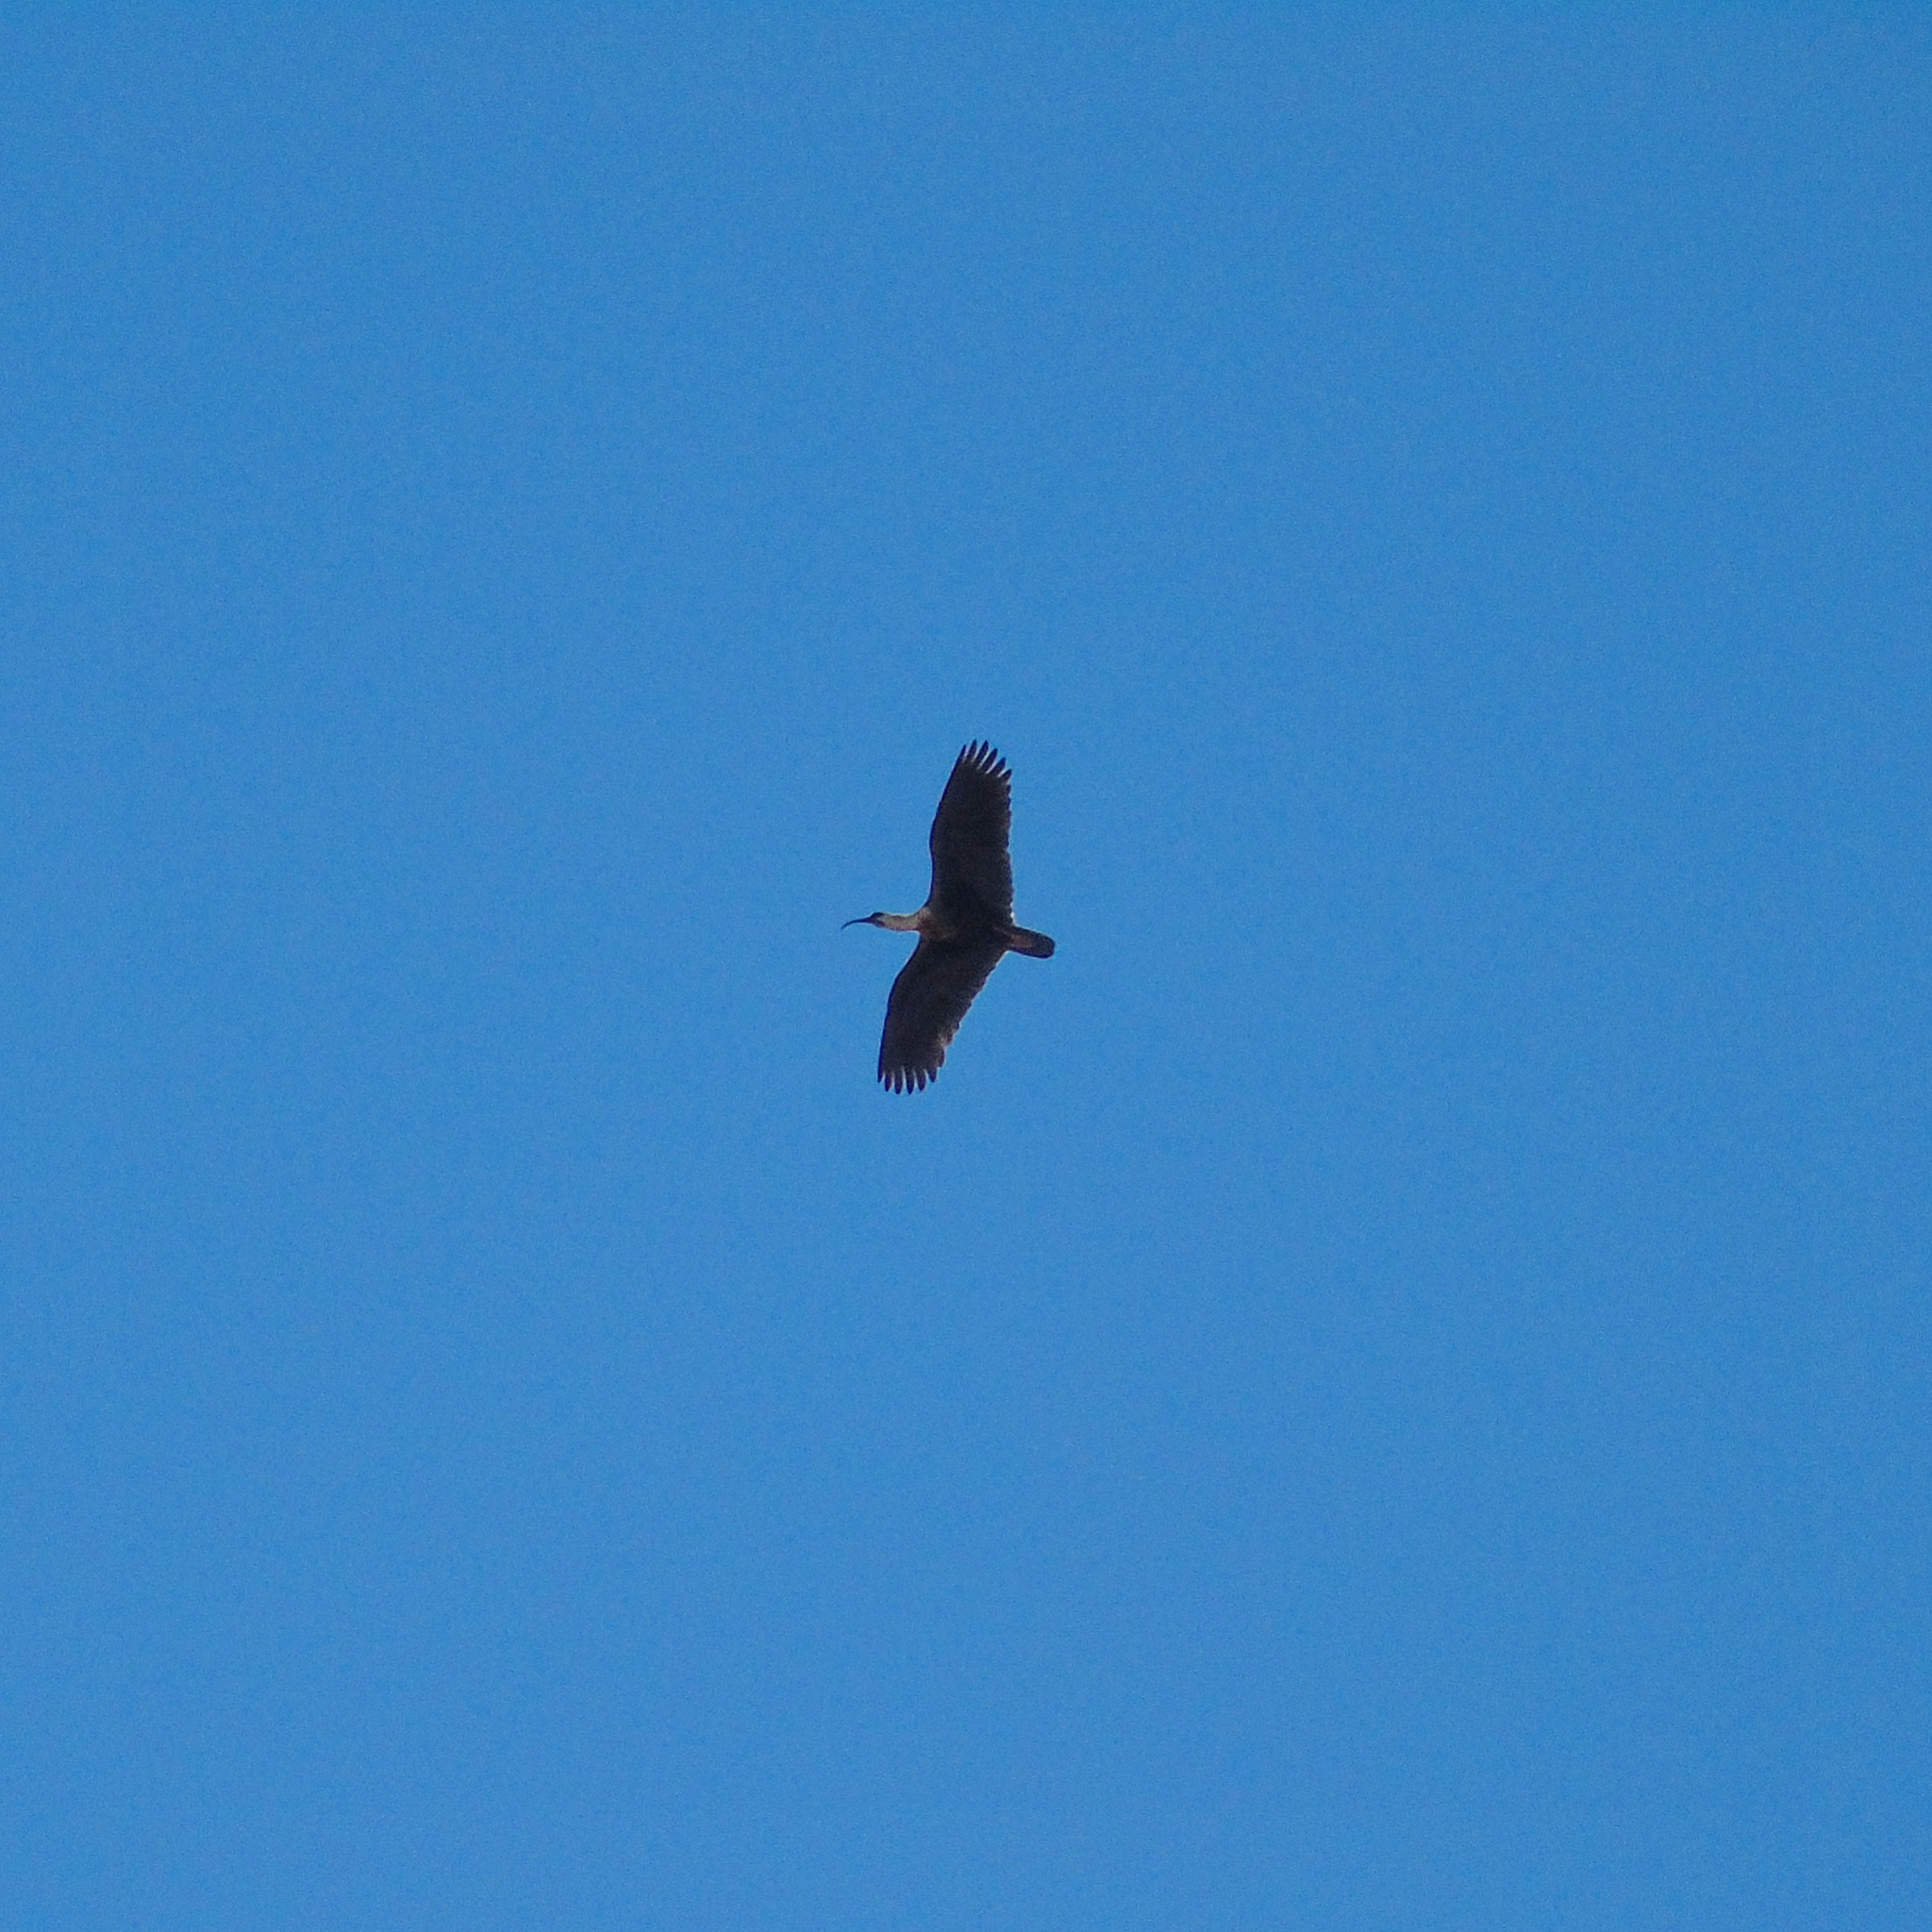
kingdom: Animalia
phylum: Chordata
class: Aves
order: Pelecaniformes
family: Threskiornithidae
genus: Theristicus
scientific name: Theristicus caudatus
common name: Buff-necked ibis
